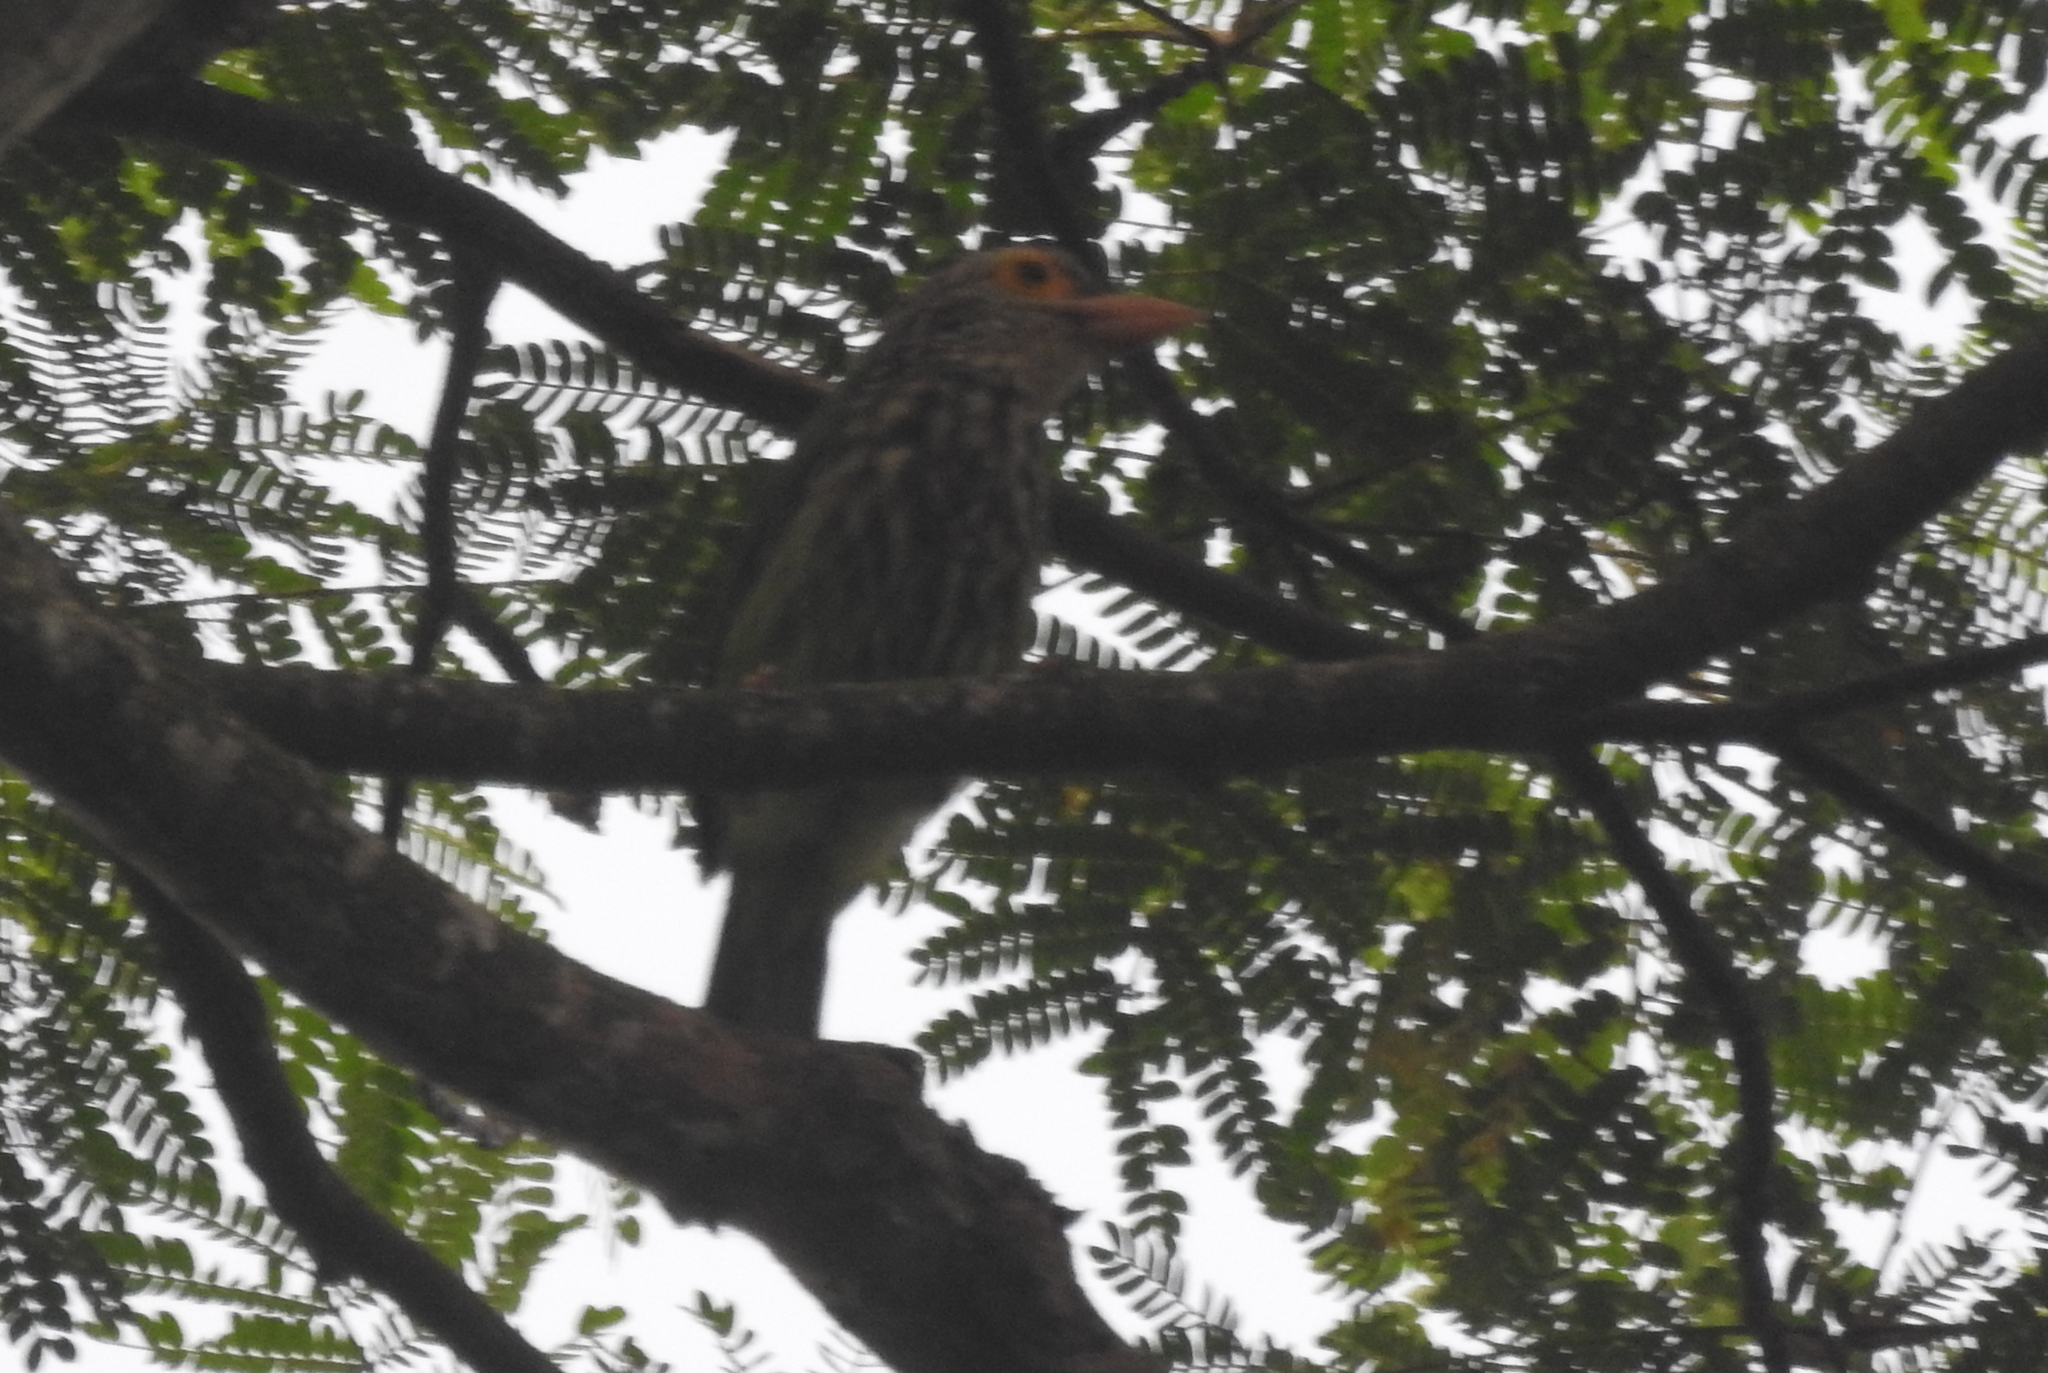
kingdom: Animalia
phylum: Chordata
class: Aves
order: Piciformes
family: Megalaimidae
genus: Psilopogon
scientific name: Psilopogon lineatus
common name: Lineated barbet
